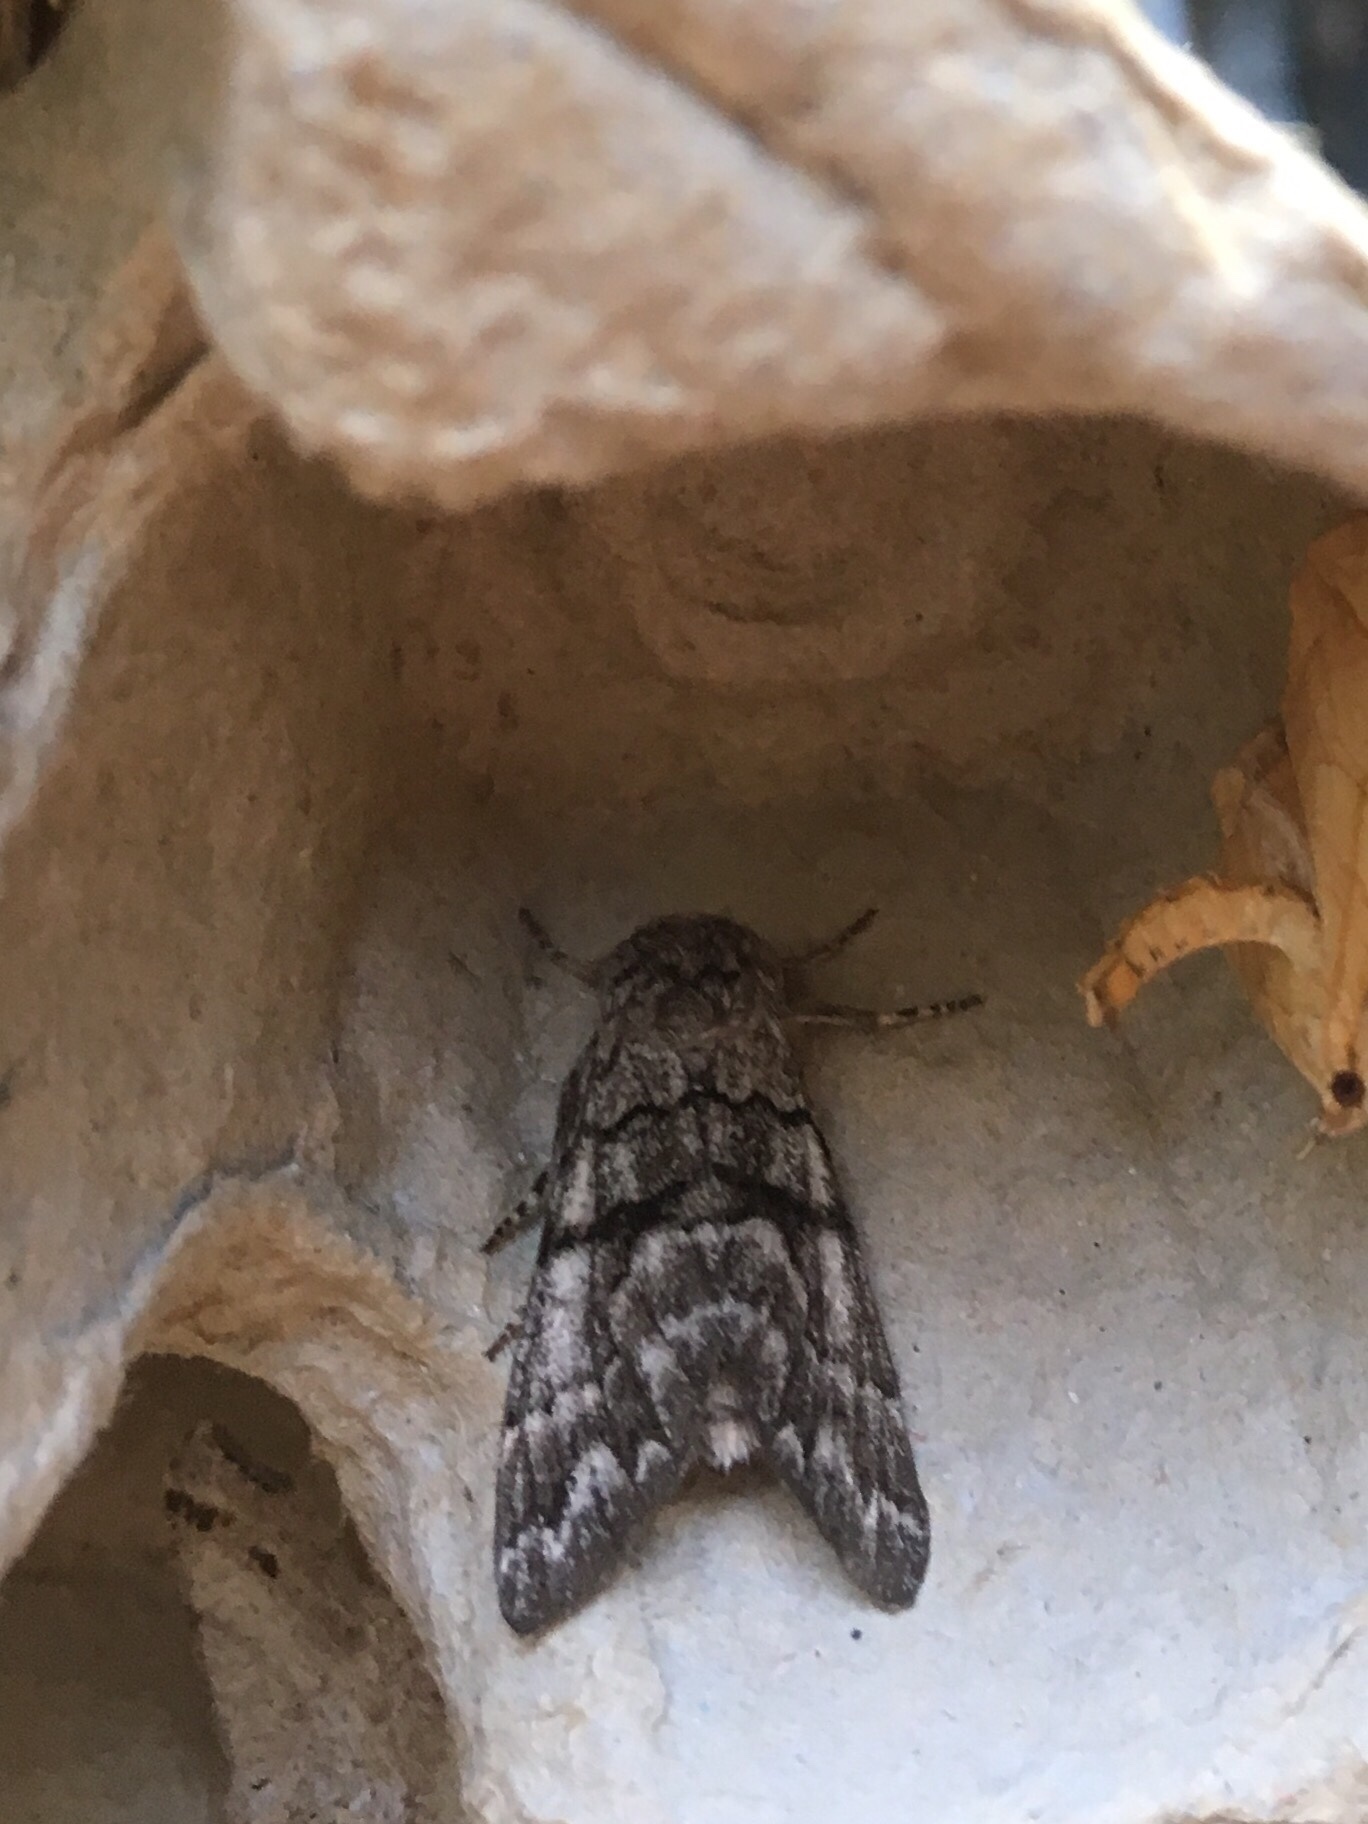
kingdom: Animalia
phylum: Arthropoda
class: Insecta
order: Lepidoptera
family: Noctuidae
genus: Panthea
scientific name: Panthea furcilla
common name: Eastern panthea moth
